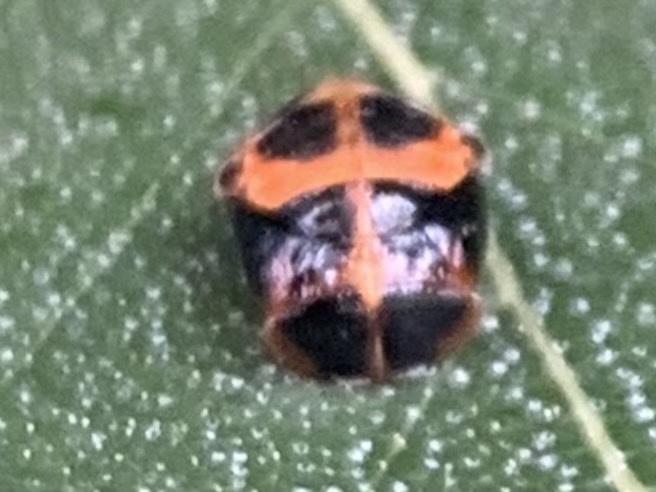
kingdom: Animalia
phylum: Arthropoda
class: Insecta
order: Coleoptera
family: Coccinellidae
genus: Harmonia
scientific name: Harmonia axyridis
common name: Harlequin ladybird
